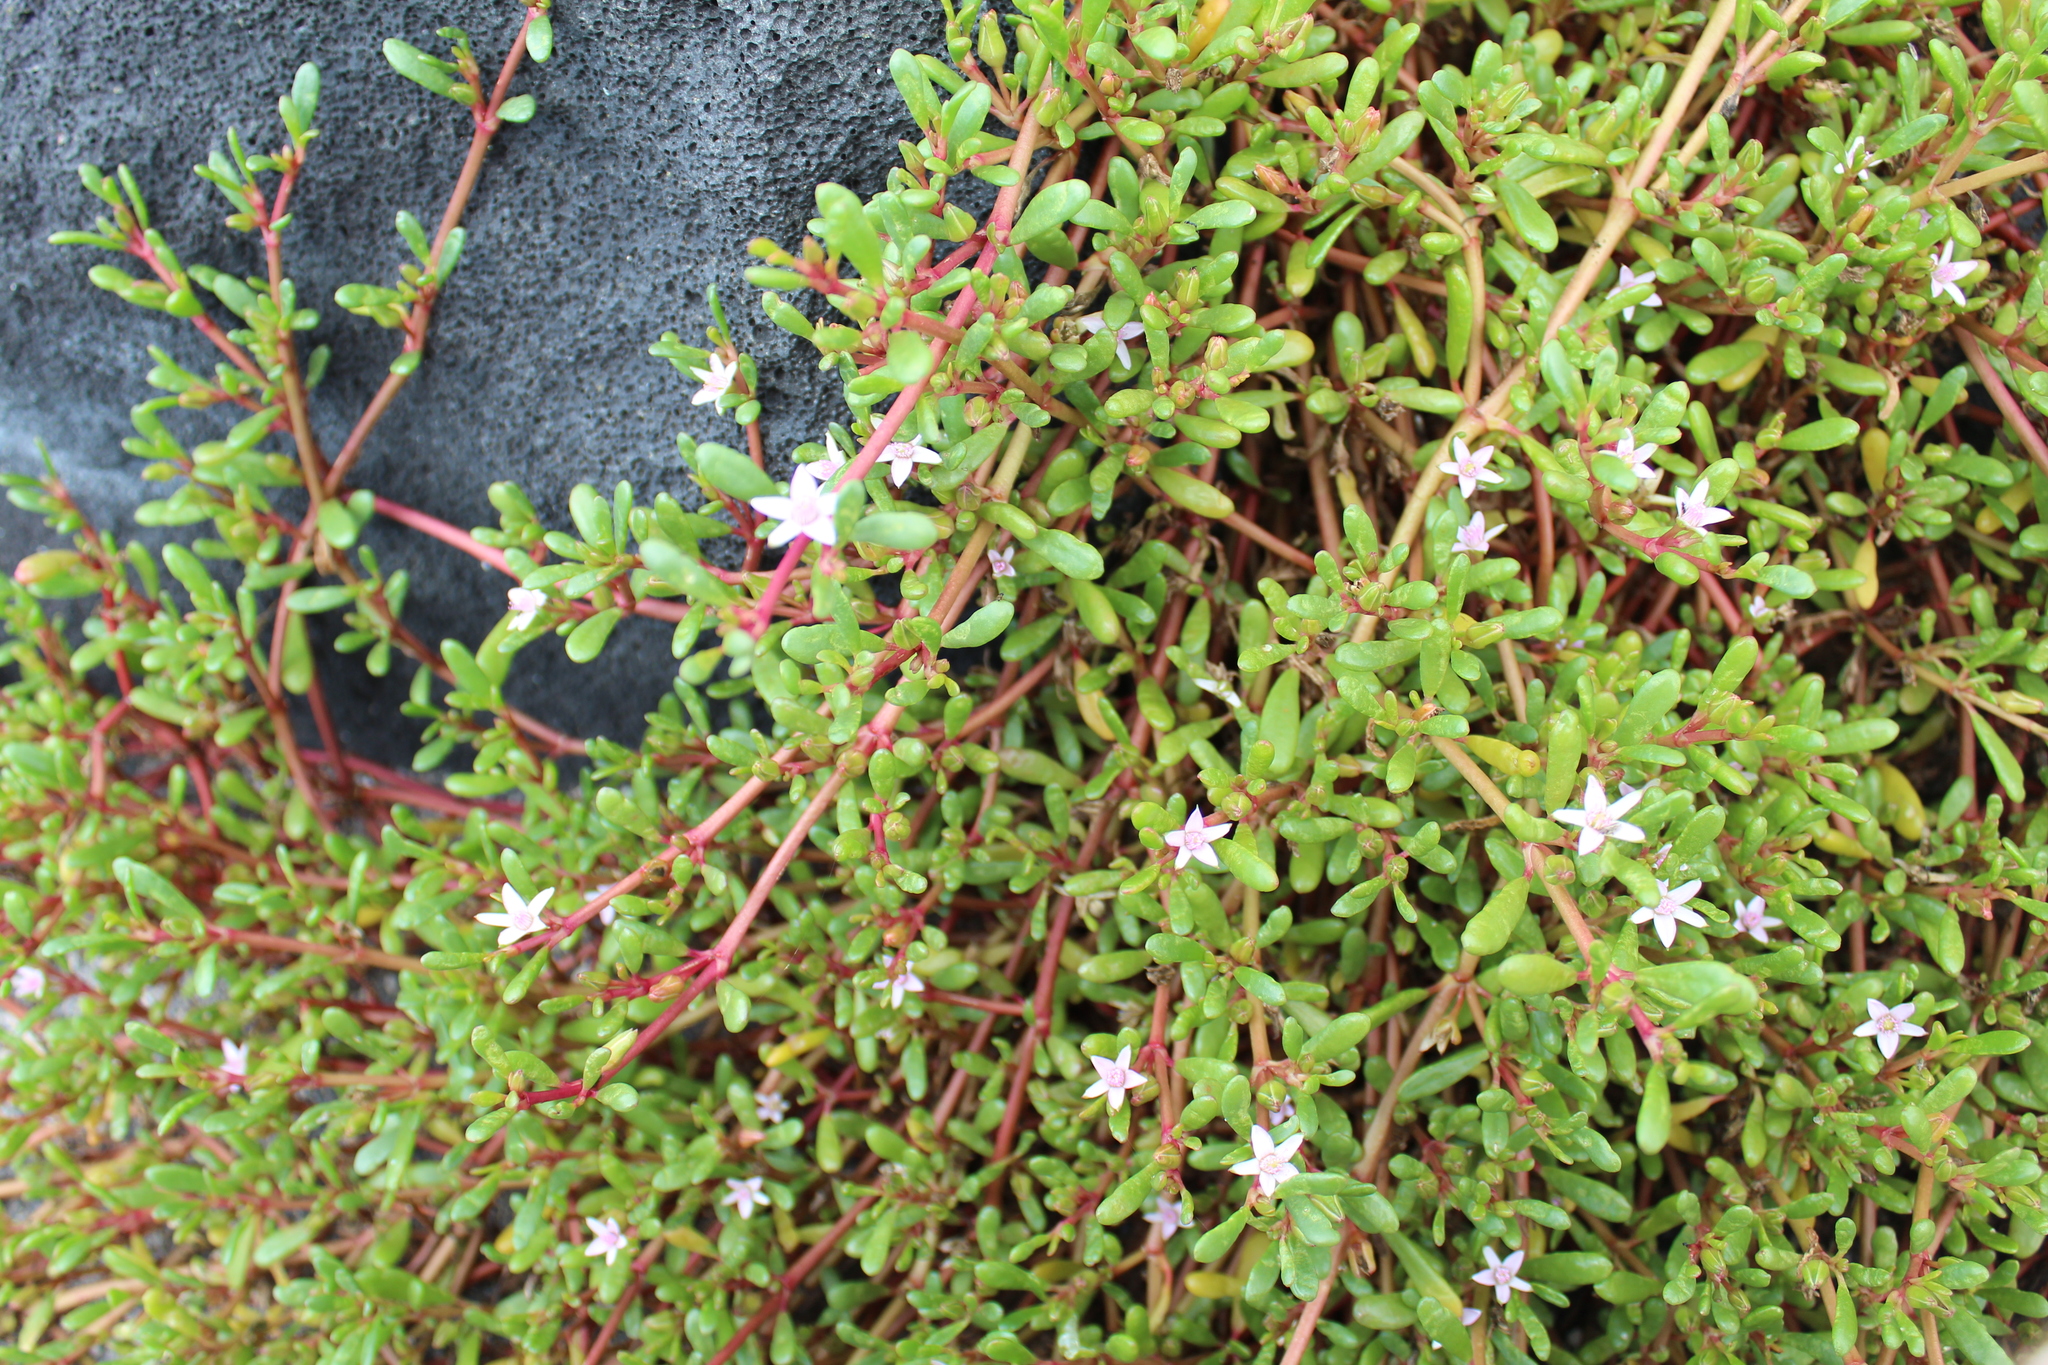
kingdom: Plantae
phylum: Tracheophyta
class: Magnoliopsida
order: Caryophyllales
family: Aizoaceae
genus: Sesuvium
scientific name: Sesuvium portulacastrum
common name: Sea-purslane
